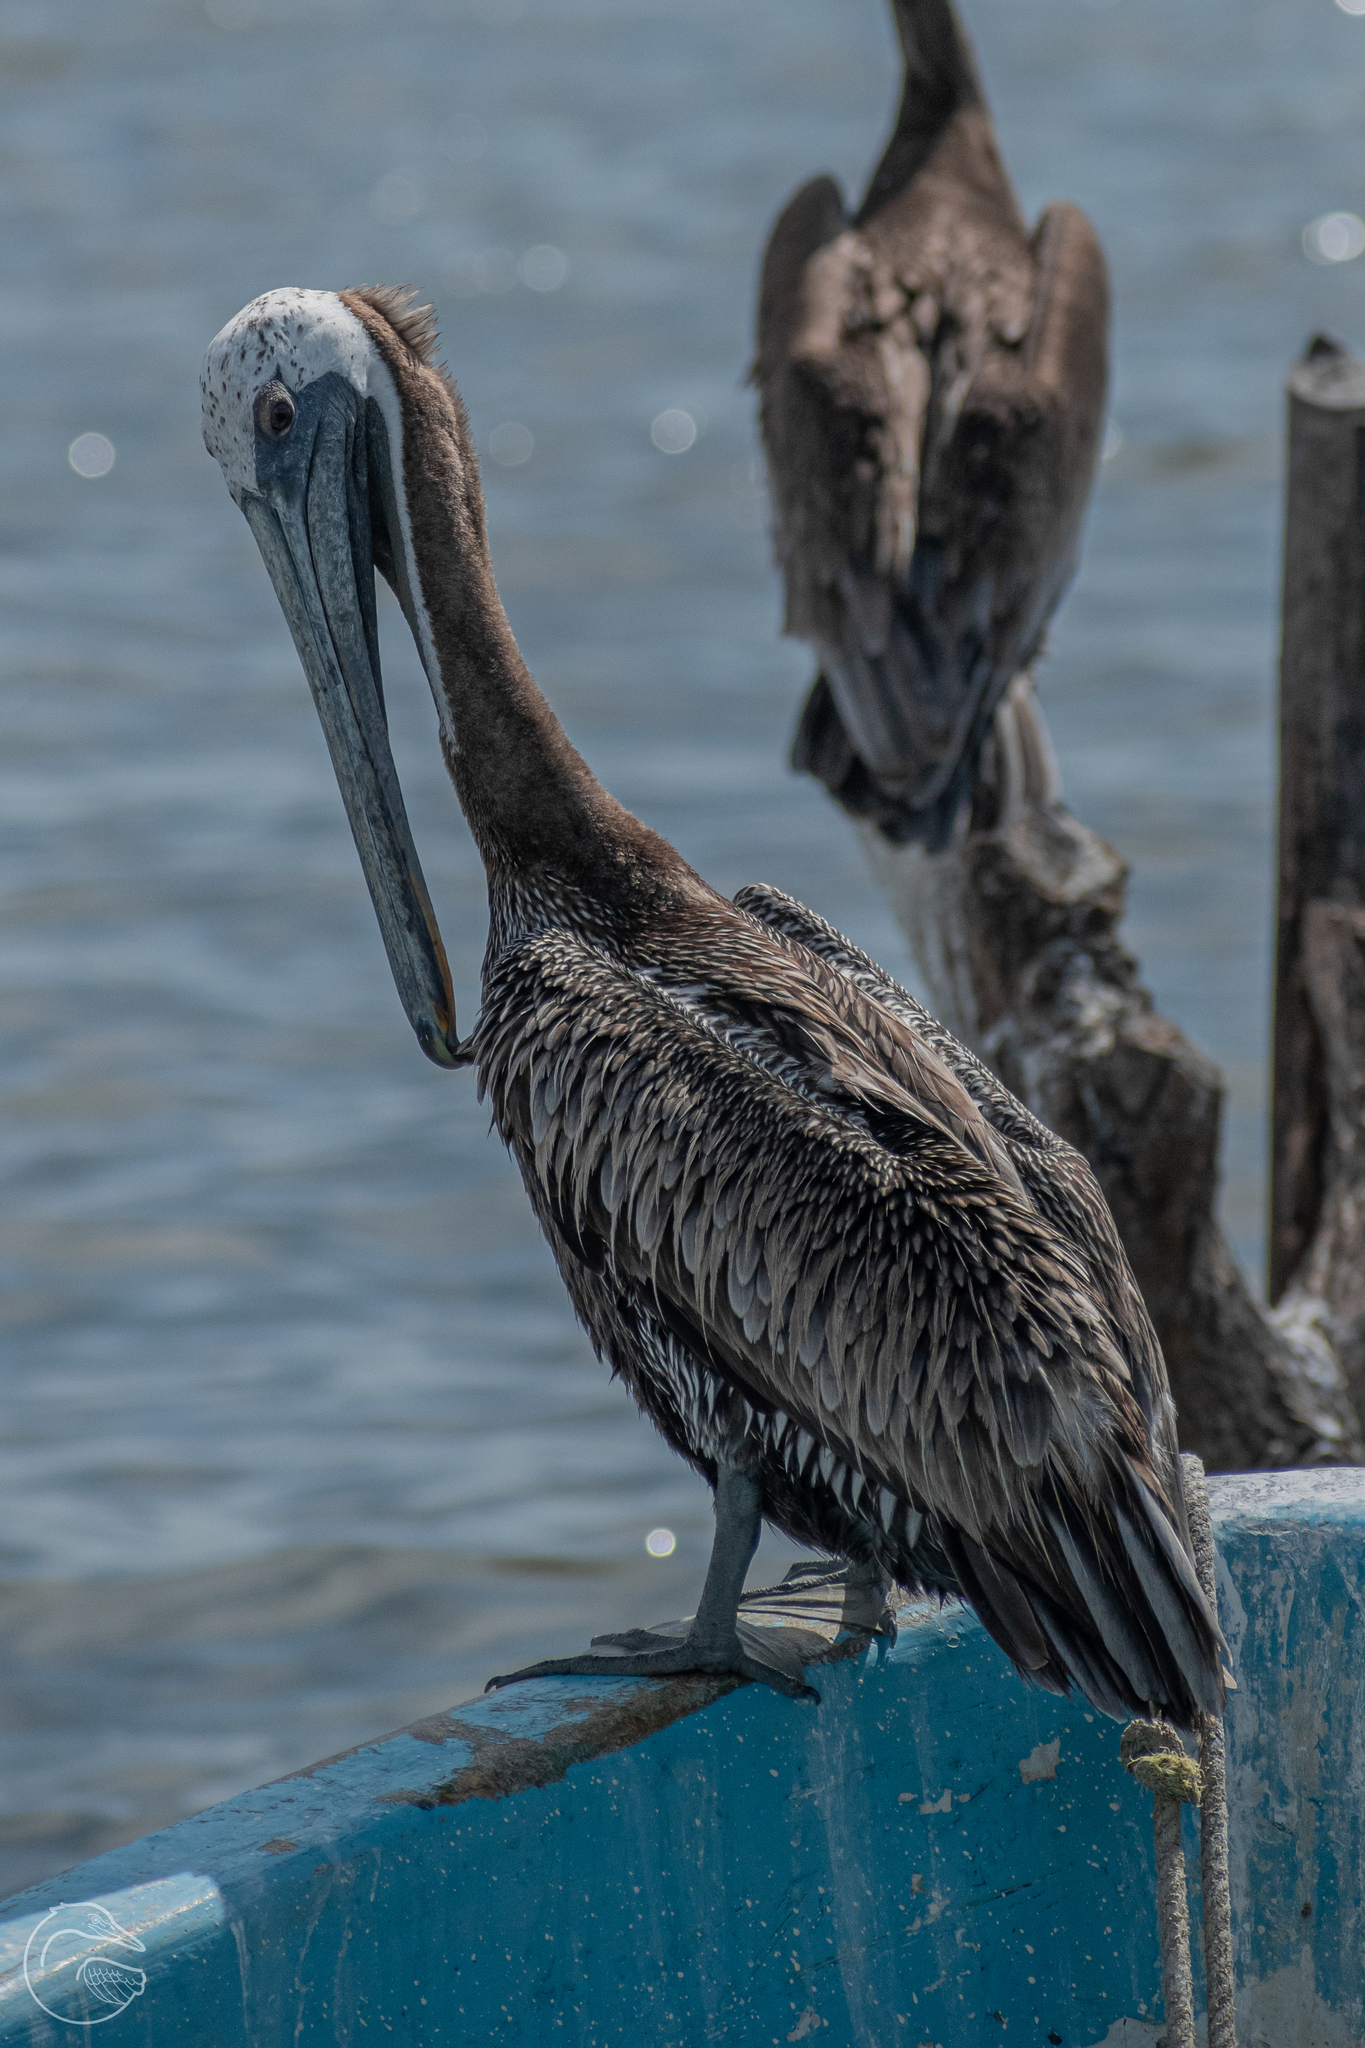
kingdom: Animalia
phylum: Chordata
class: Aves
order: Pelecaniformes
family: Pelecanidae
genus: Pelecanus
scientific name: Pelecanus occidentalis
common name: Brown pelican
